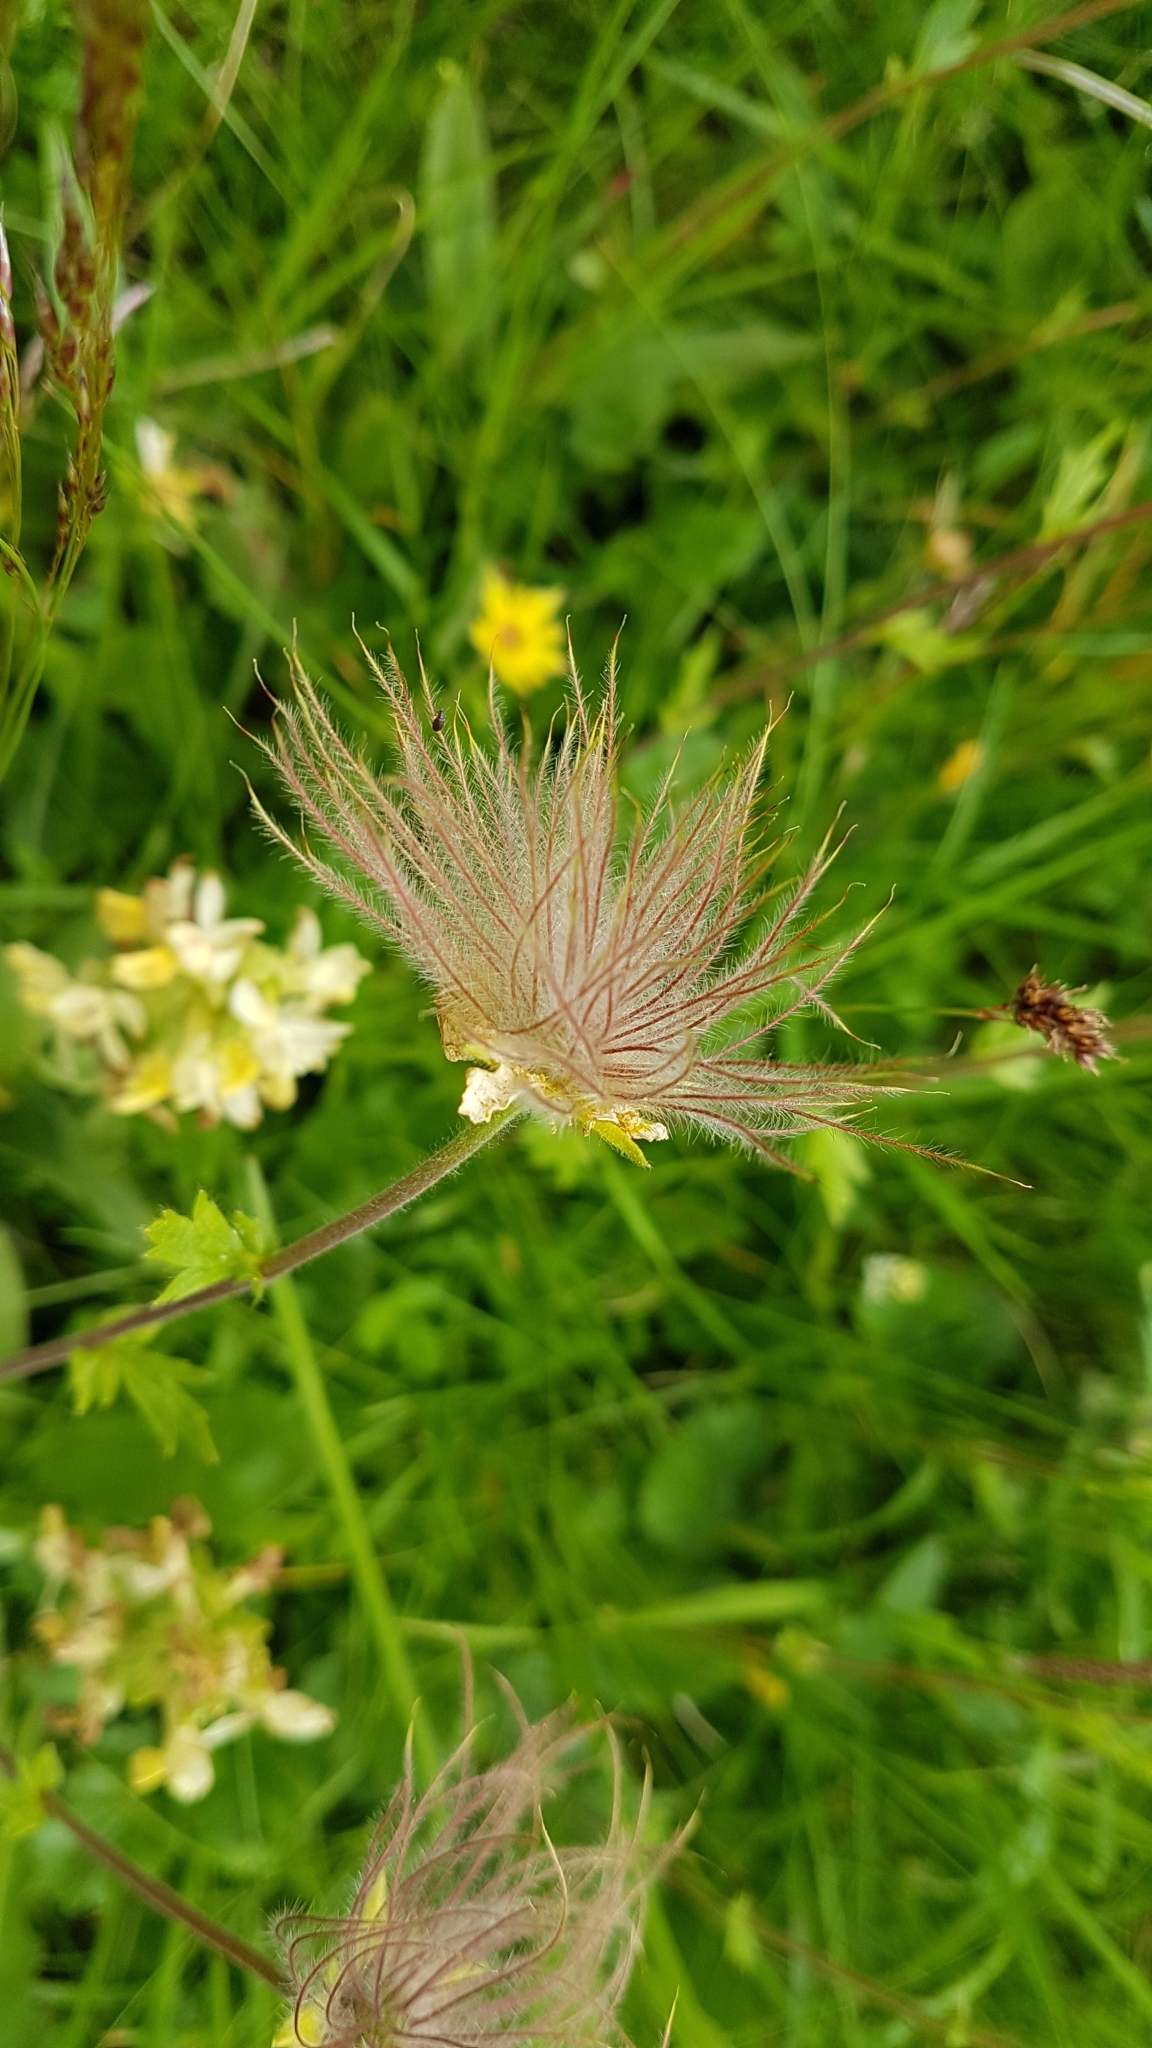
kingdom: Plantae
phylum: Tracheophyta
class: Magnoliopsida
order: Rosales
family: Rosaceae
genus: Geum
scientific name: Geum montanum
